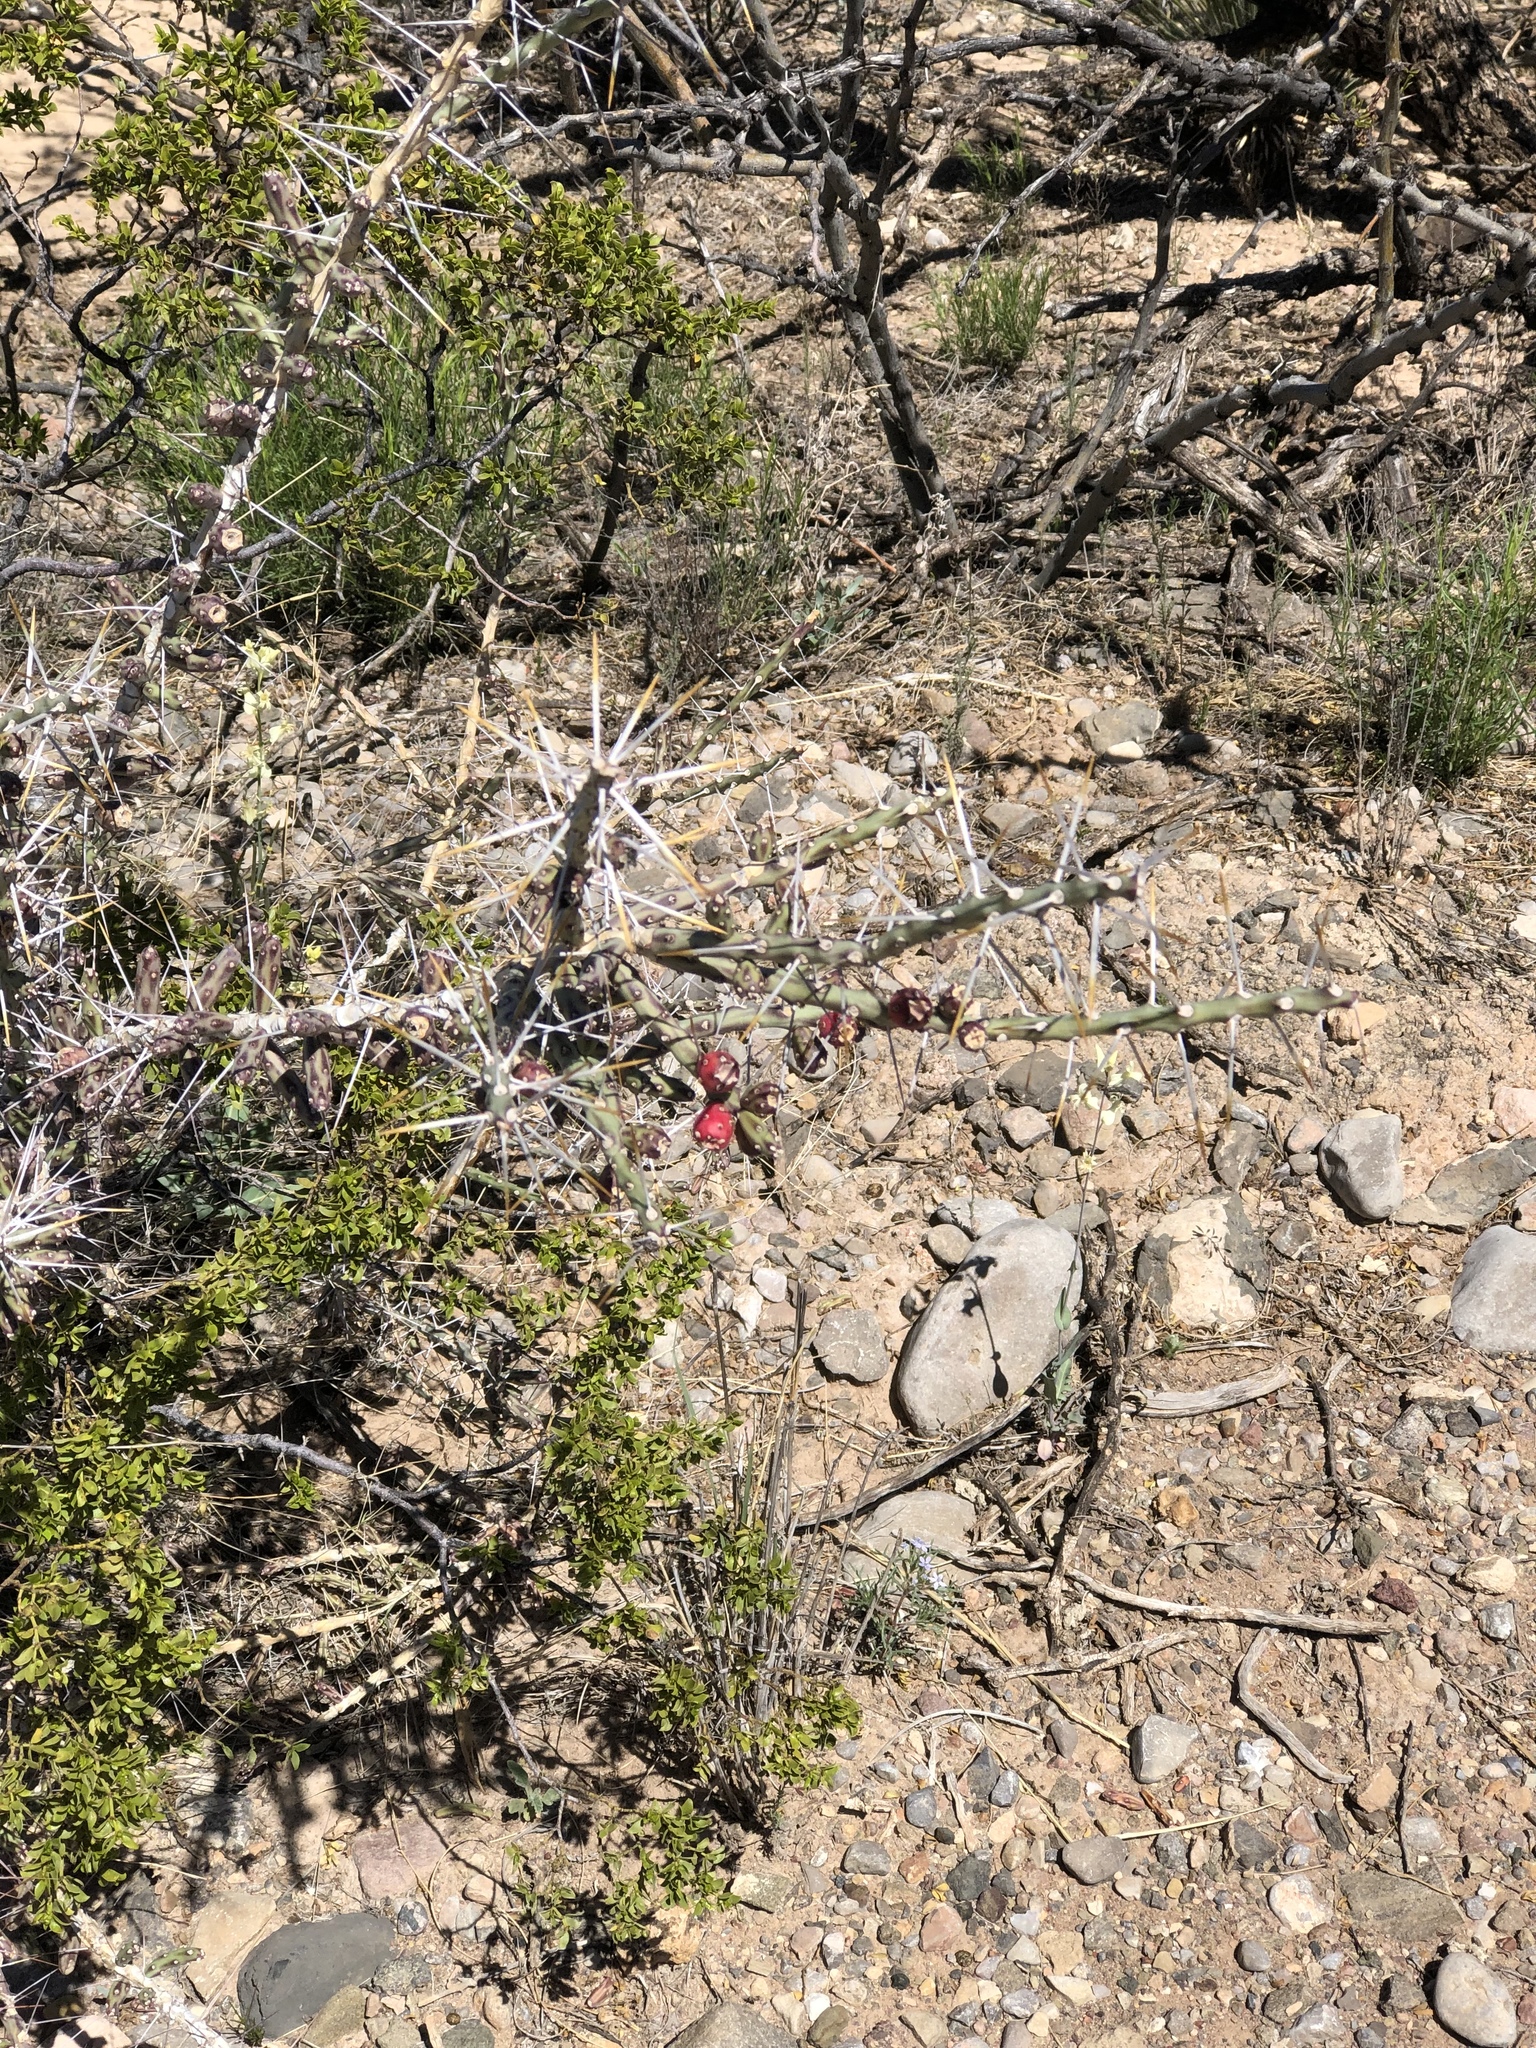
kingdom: Plantae
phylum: Tracheophyta
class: Magnoliopsida
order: Caryophyllales
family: Cactaceae
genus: Cylindropuntia
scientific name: Cylindropuntia leptocaulis
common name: Christmas cactus
